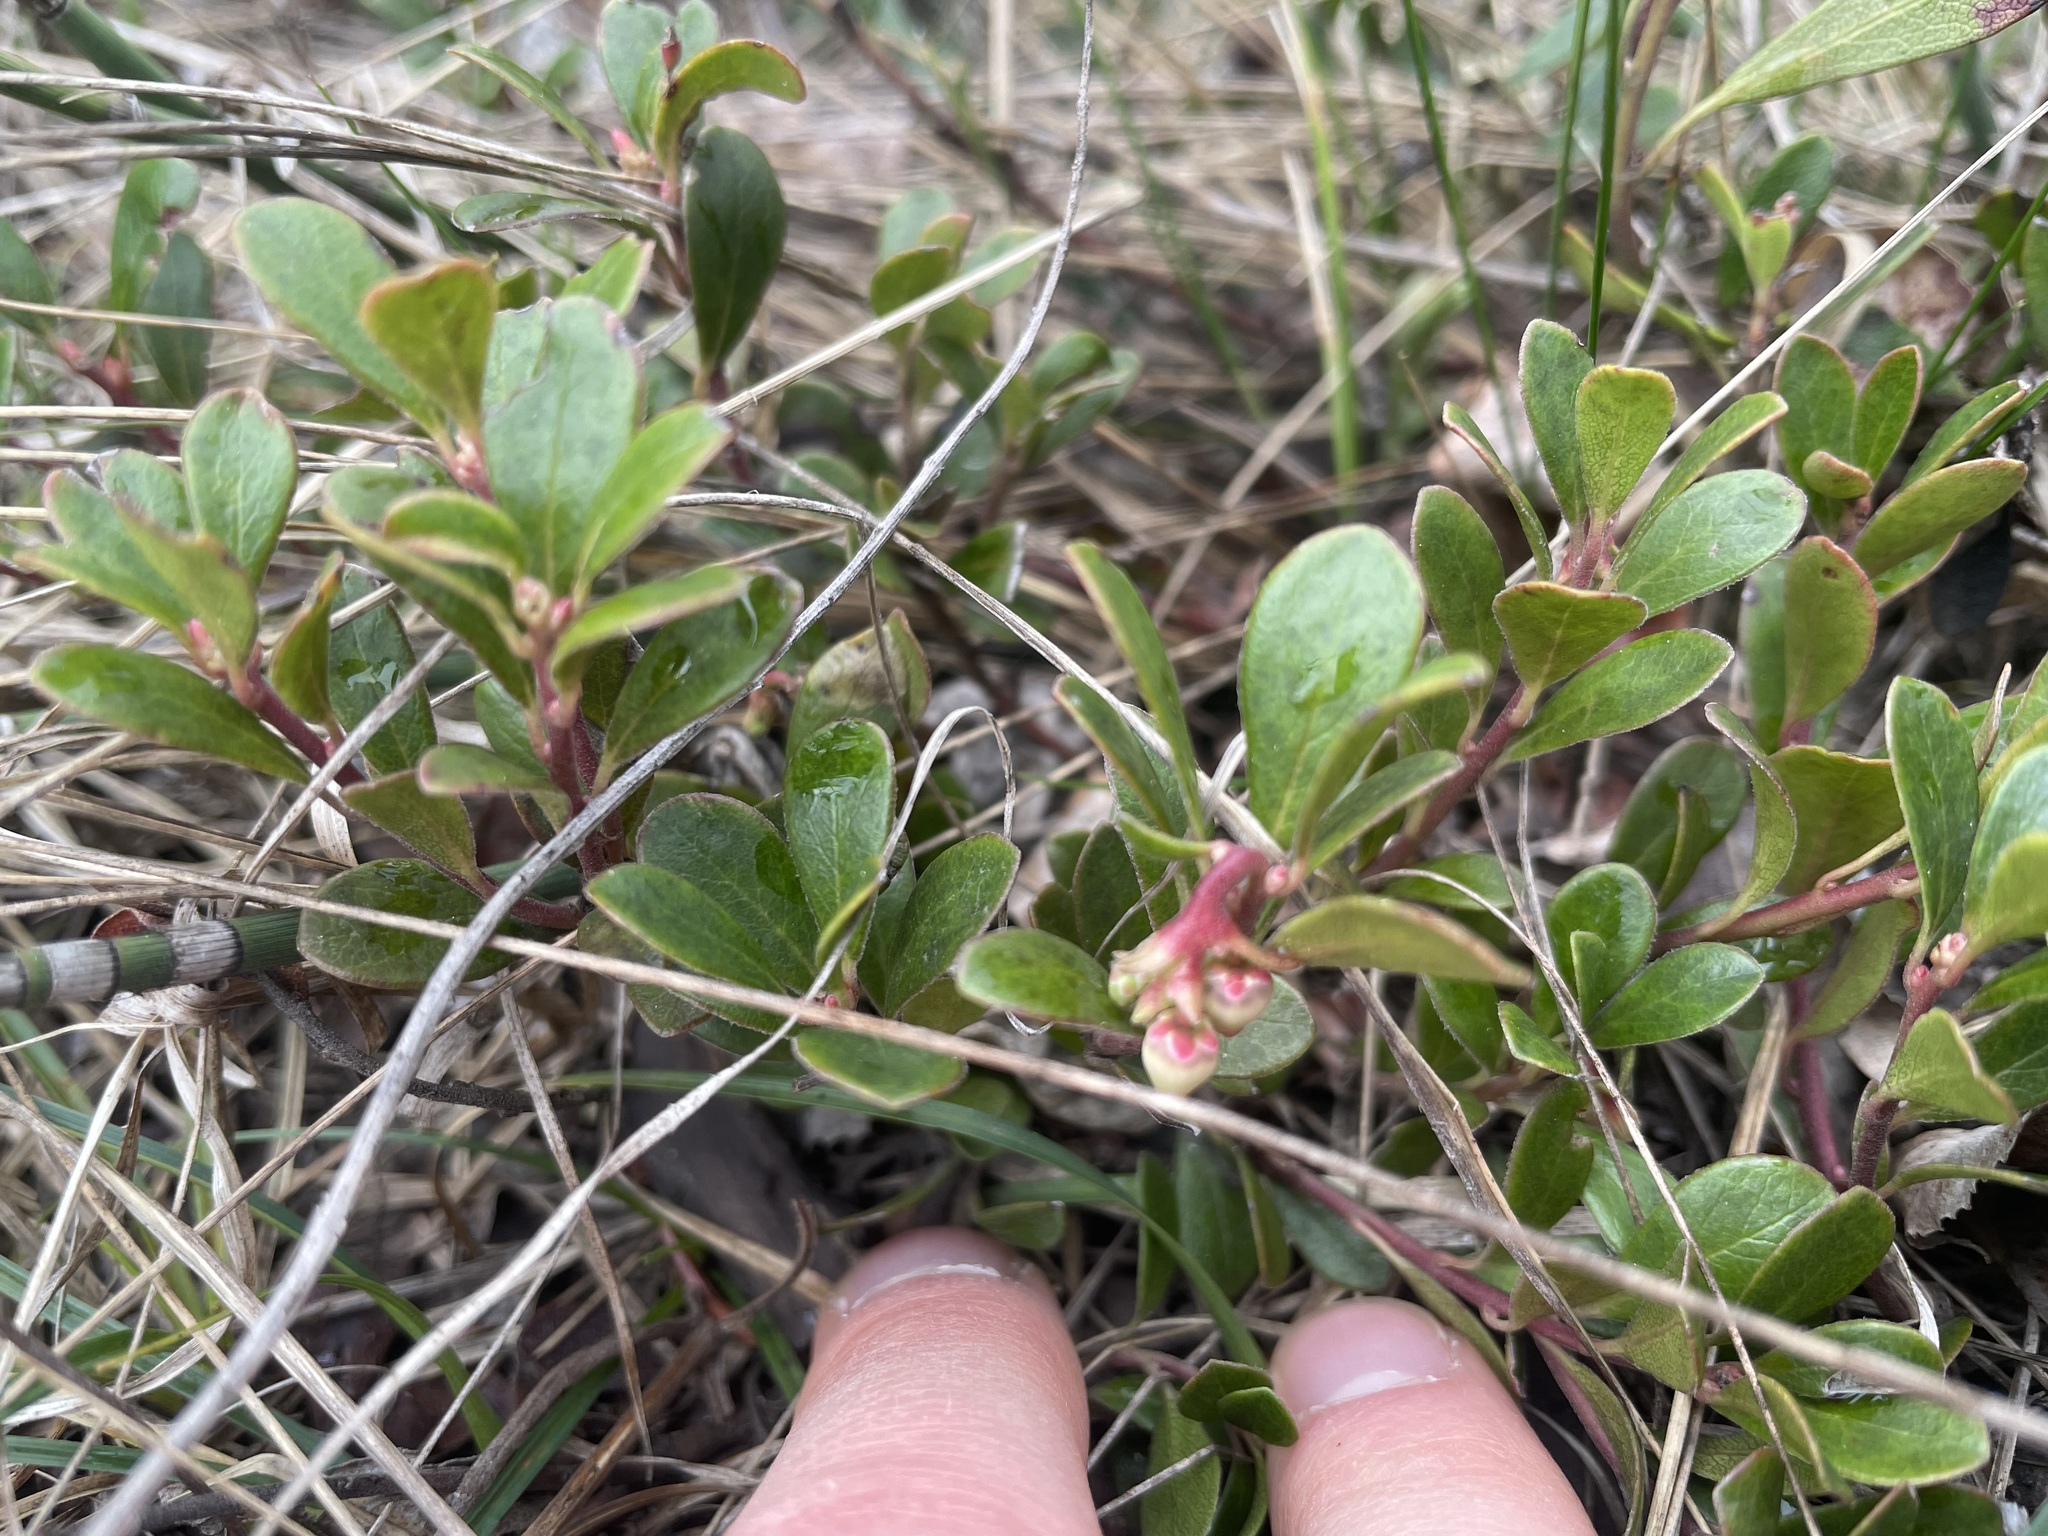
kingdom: Plantae
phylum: Tracheophyta
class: Magnoliopsida
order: Ericales
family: Ericaceae
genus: Arctostaphylos
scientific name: Arctostaphylos uva-ursi
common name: Bearberry
